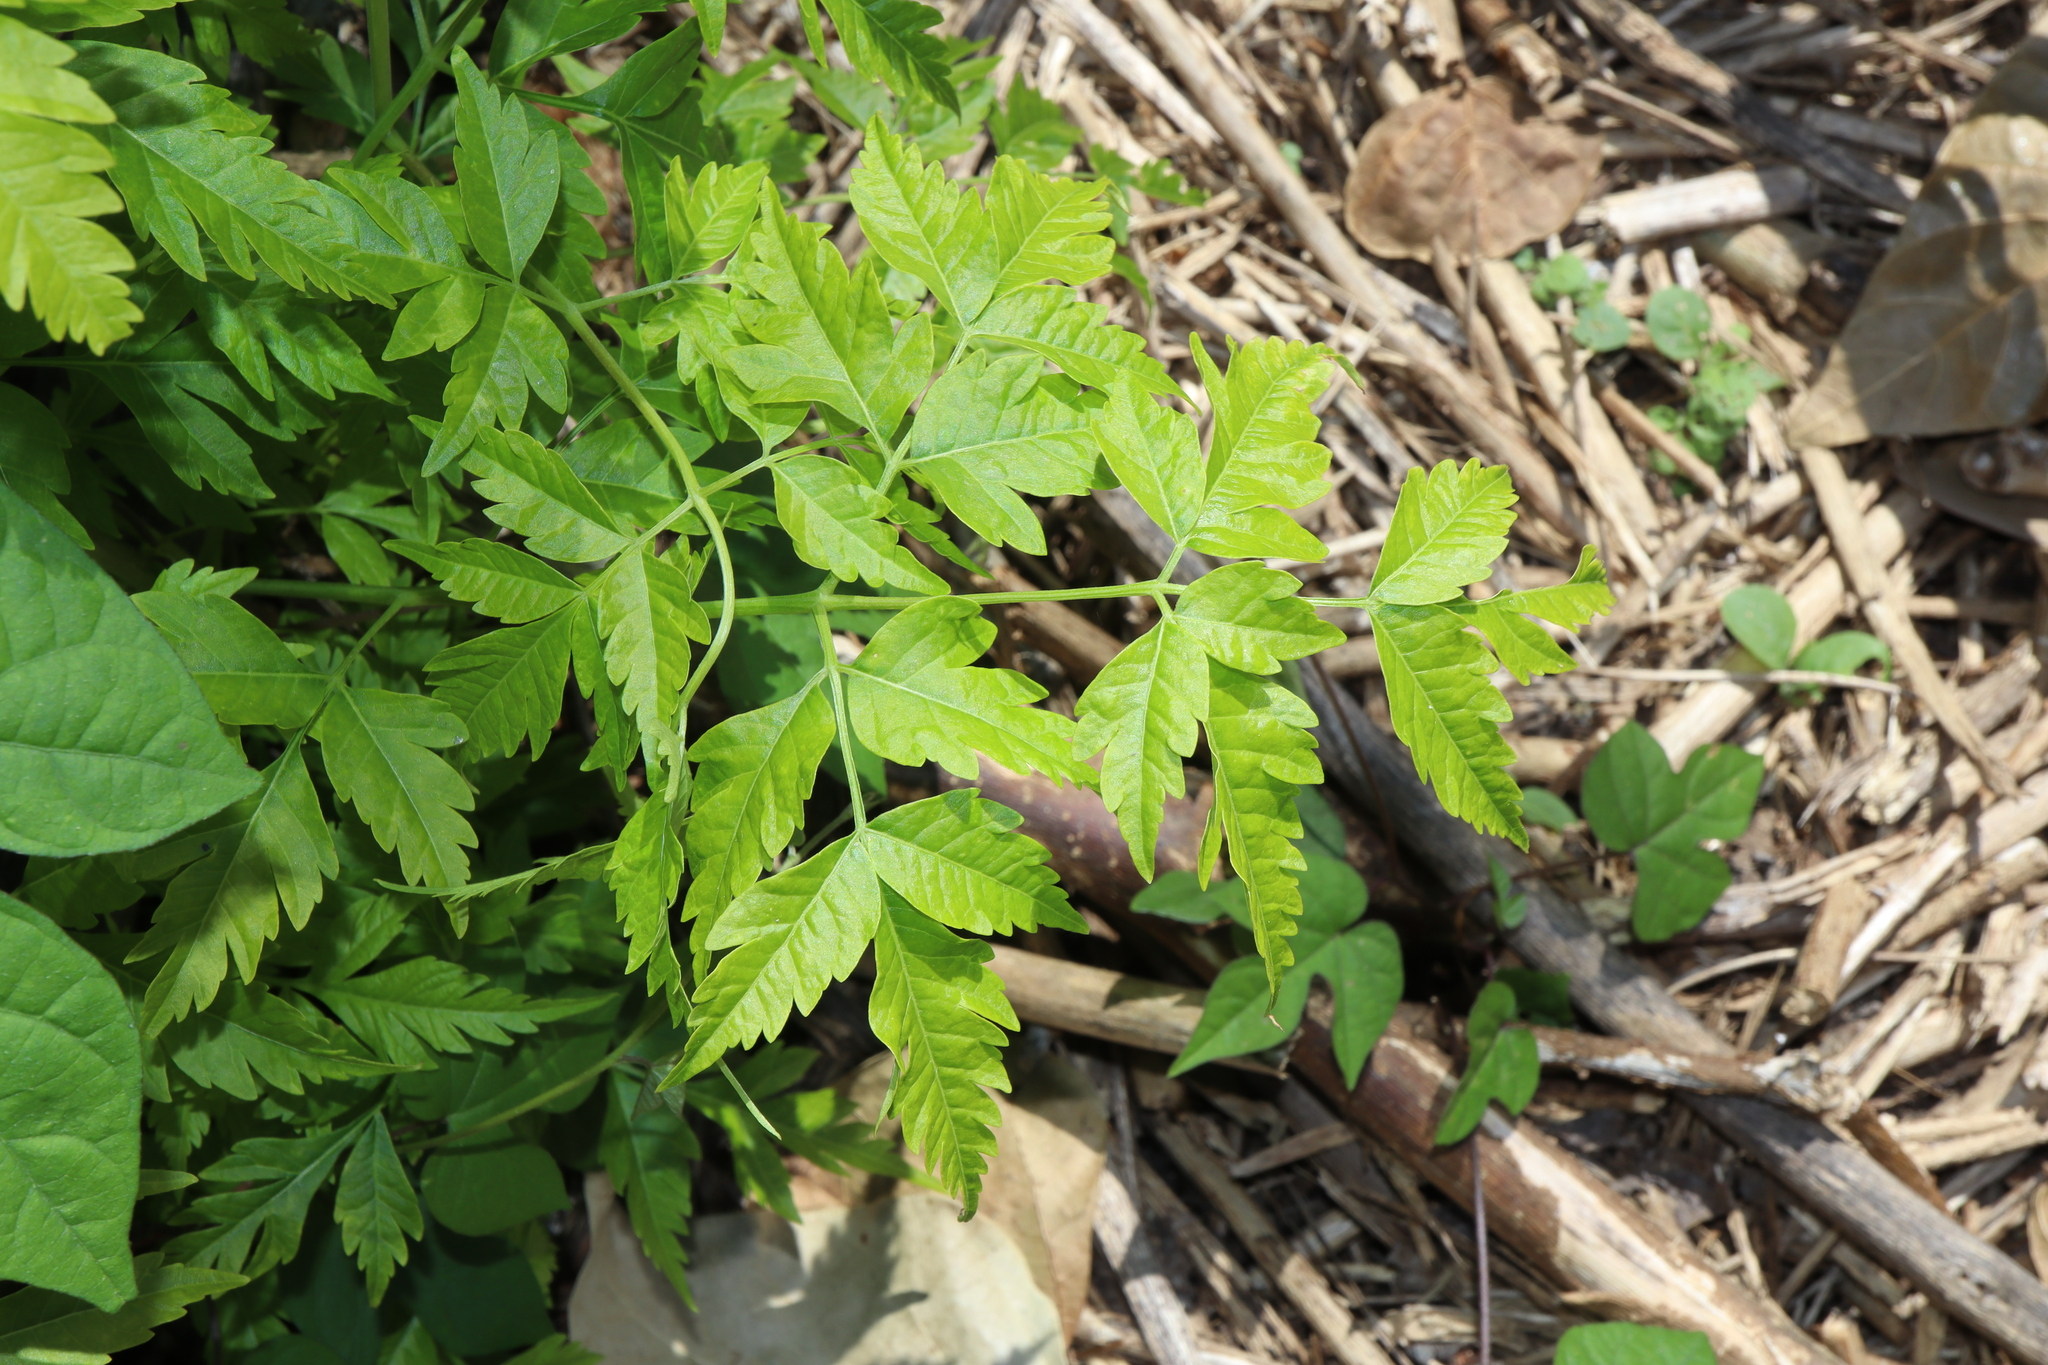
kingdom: Plantae
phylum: Tracheophyta
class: Magnoliopsida
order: Sapindales
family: Meliaceae
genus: Melia
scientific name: Melia azedarach
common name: Chinaberrytree
